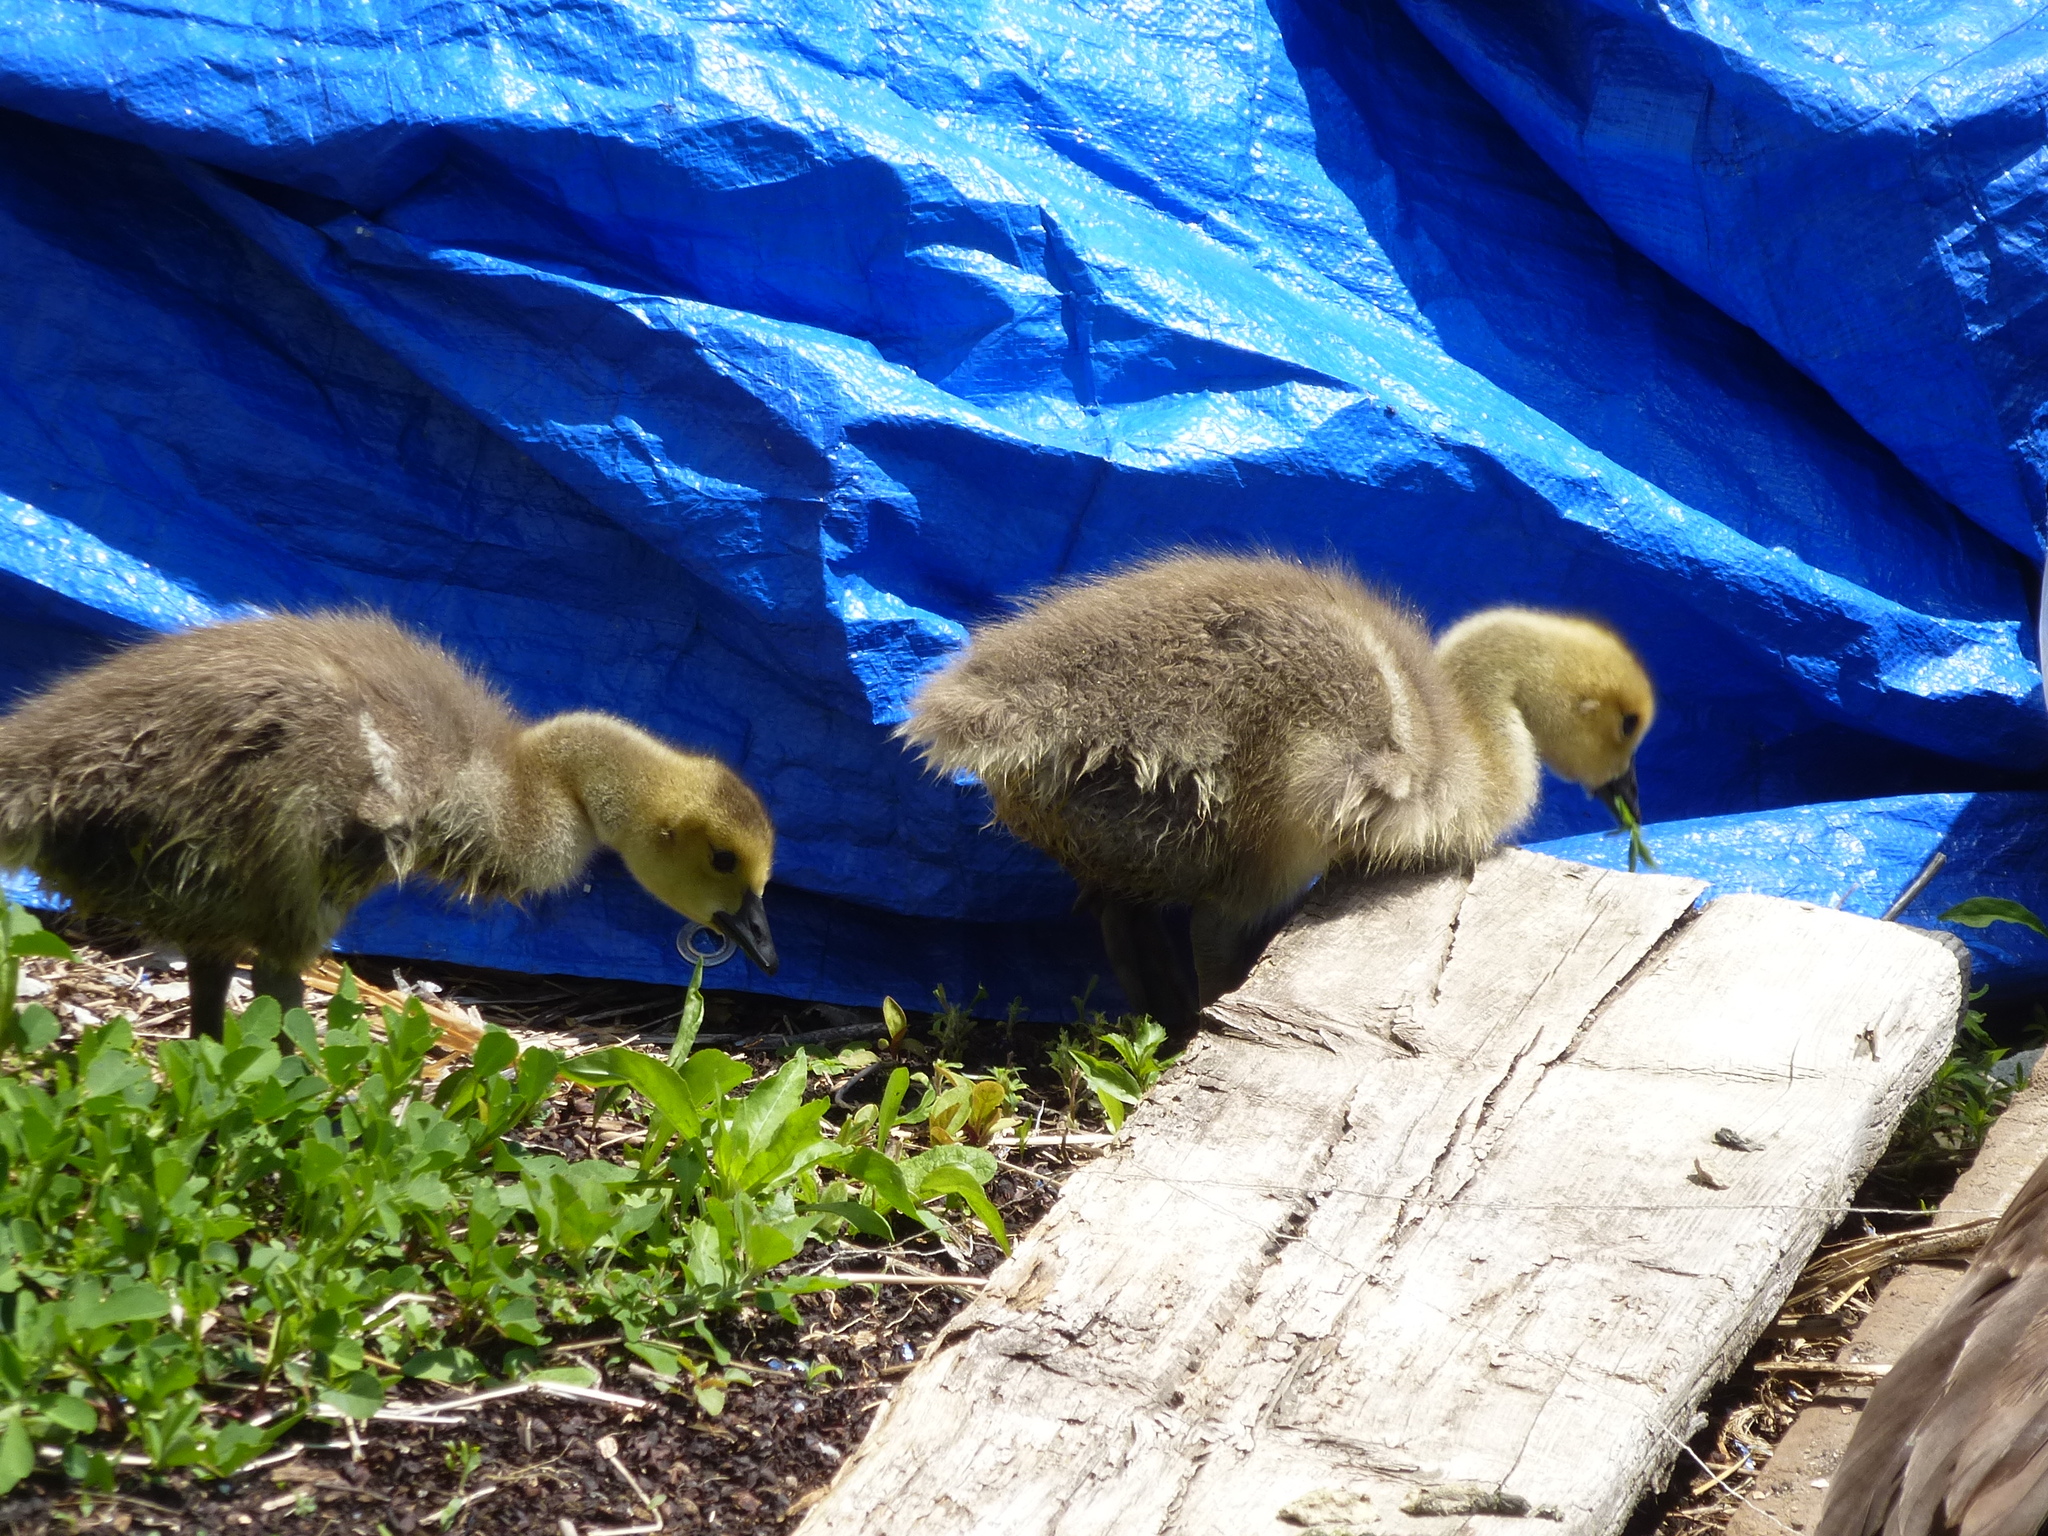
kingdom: Animalia
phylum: Chordata
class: Aves
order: Anseriformes
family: Anatidae
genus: Branta
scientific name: Branta canadensis
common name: Canada goose
